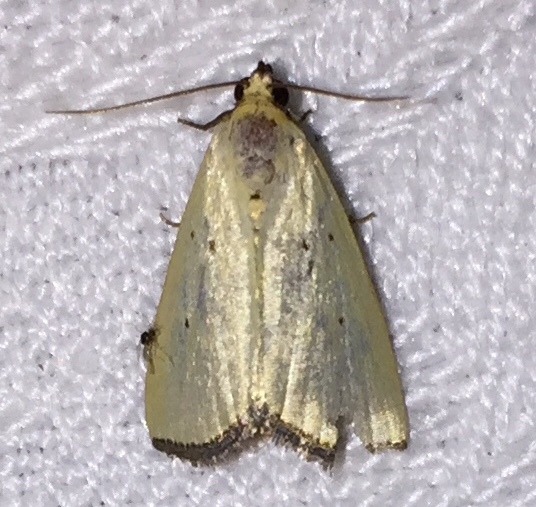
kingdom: Animalia
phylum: Arthropoda
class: Insecta
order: Lepidoptera
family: Noctuidae
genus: Marimatha
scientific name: Marimatha nigrofimbria
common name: Black-bordered lemon moth
